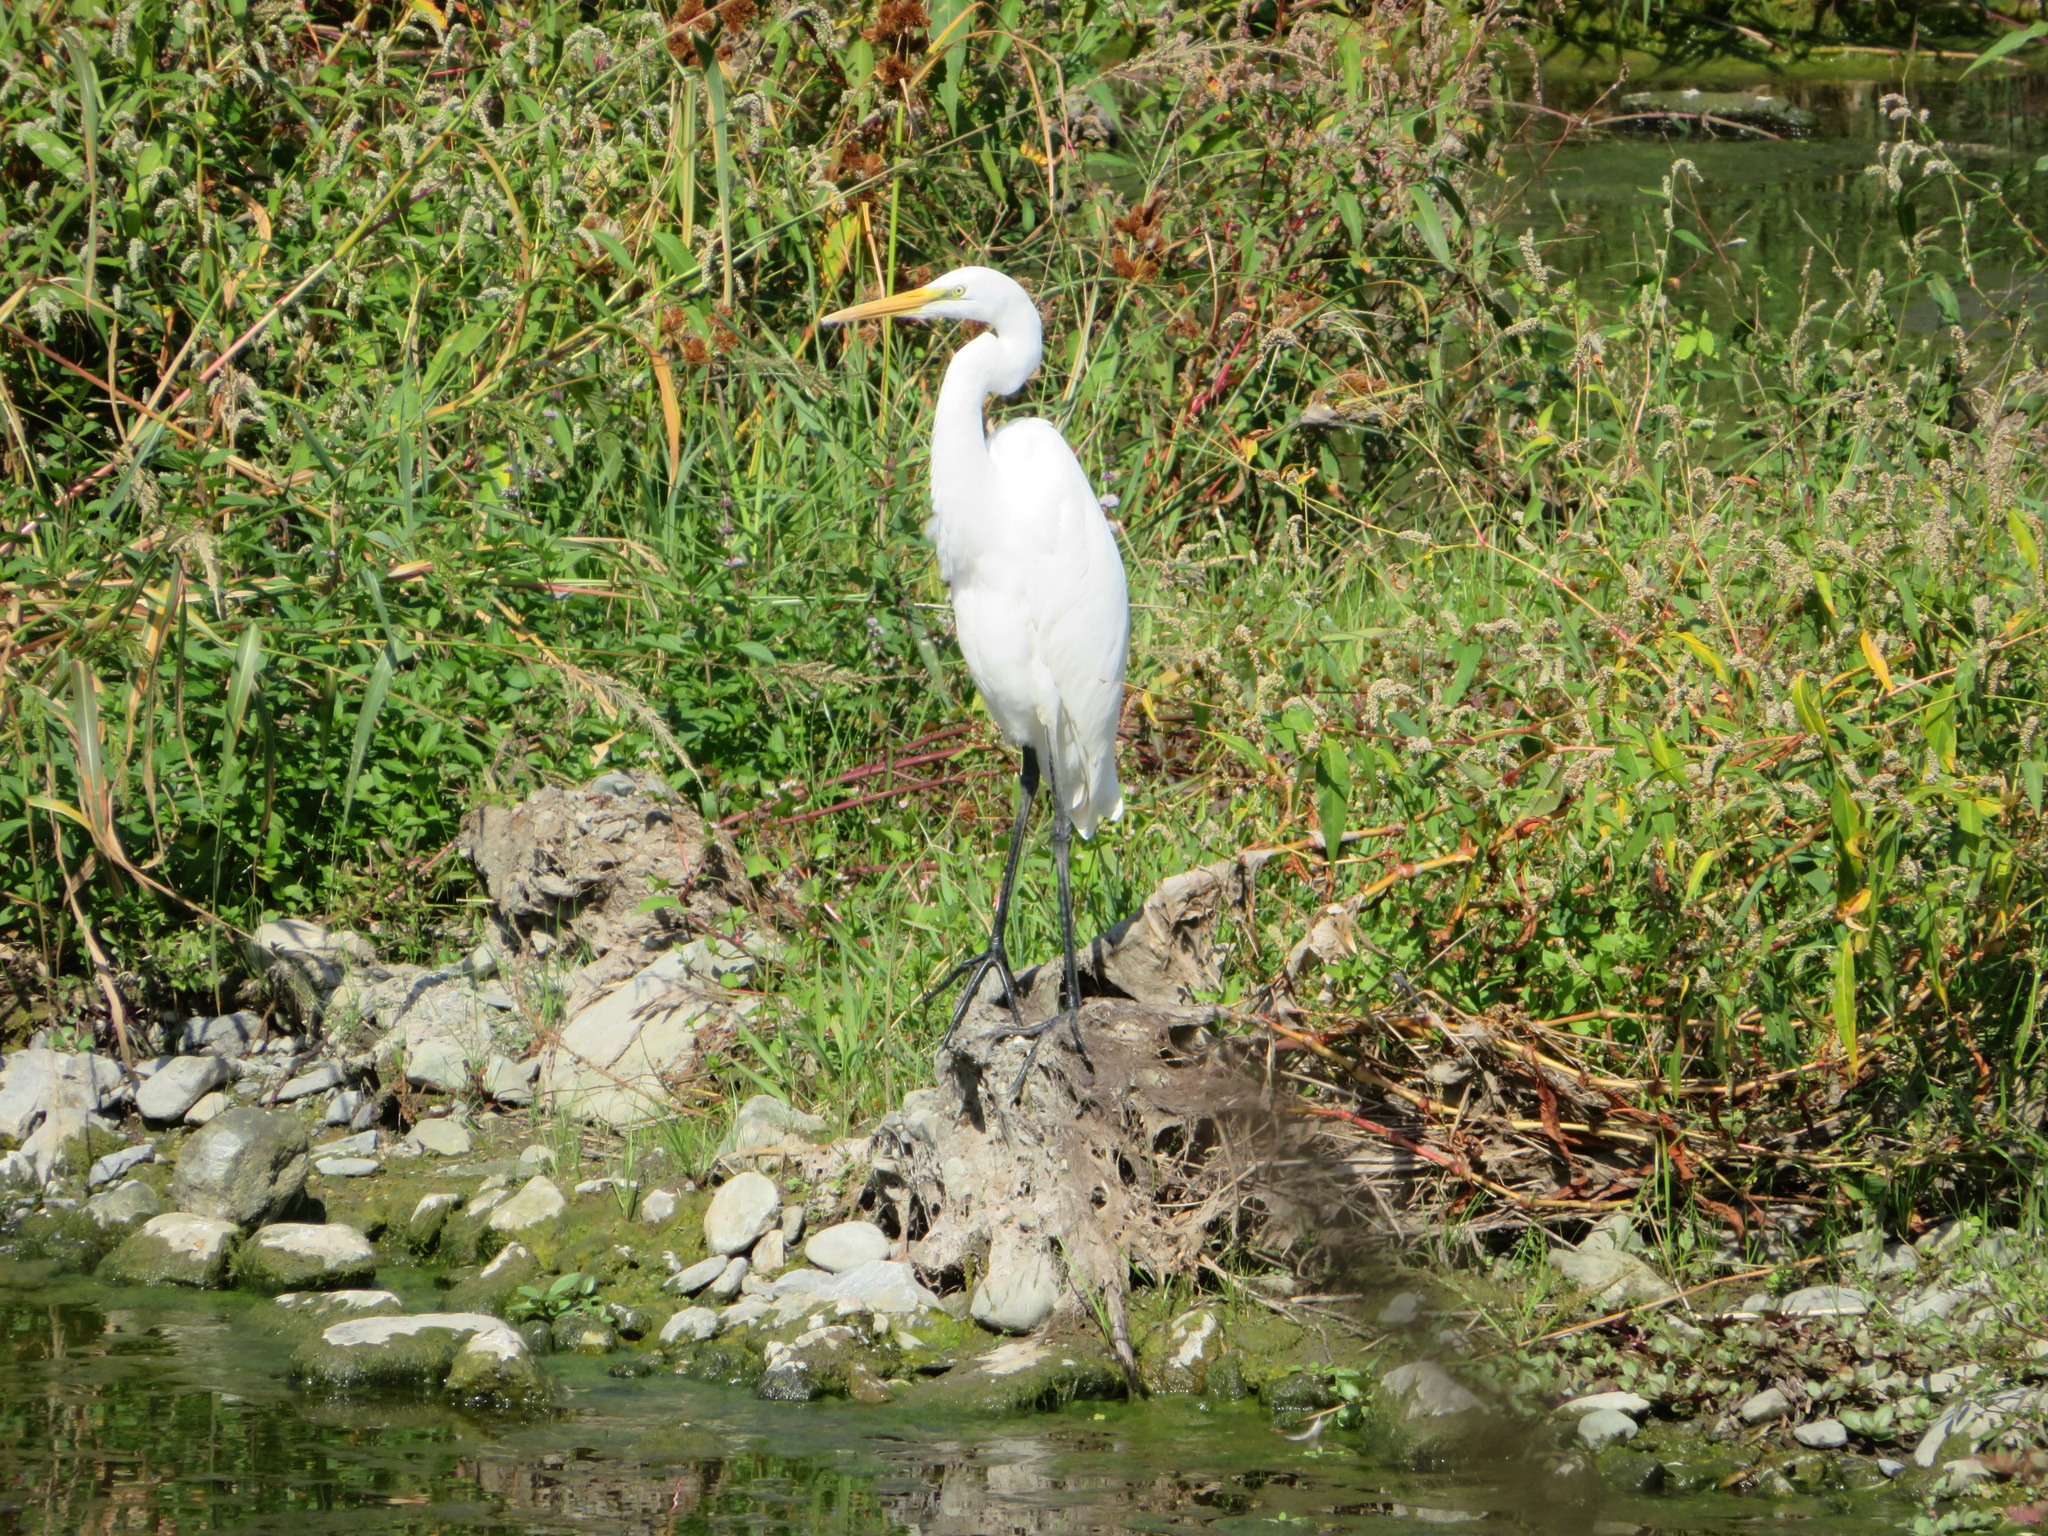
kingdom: Animalia
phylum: Chordata
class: Aves
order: Pelecaniformes
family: Ardeidae
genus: Ardea
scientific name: Ardea alba
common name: Great egret
